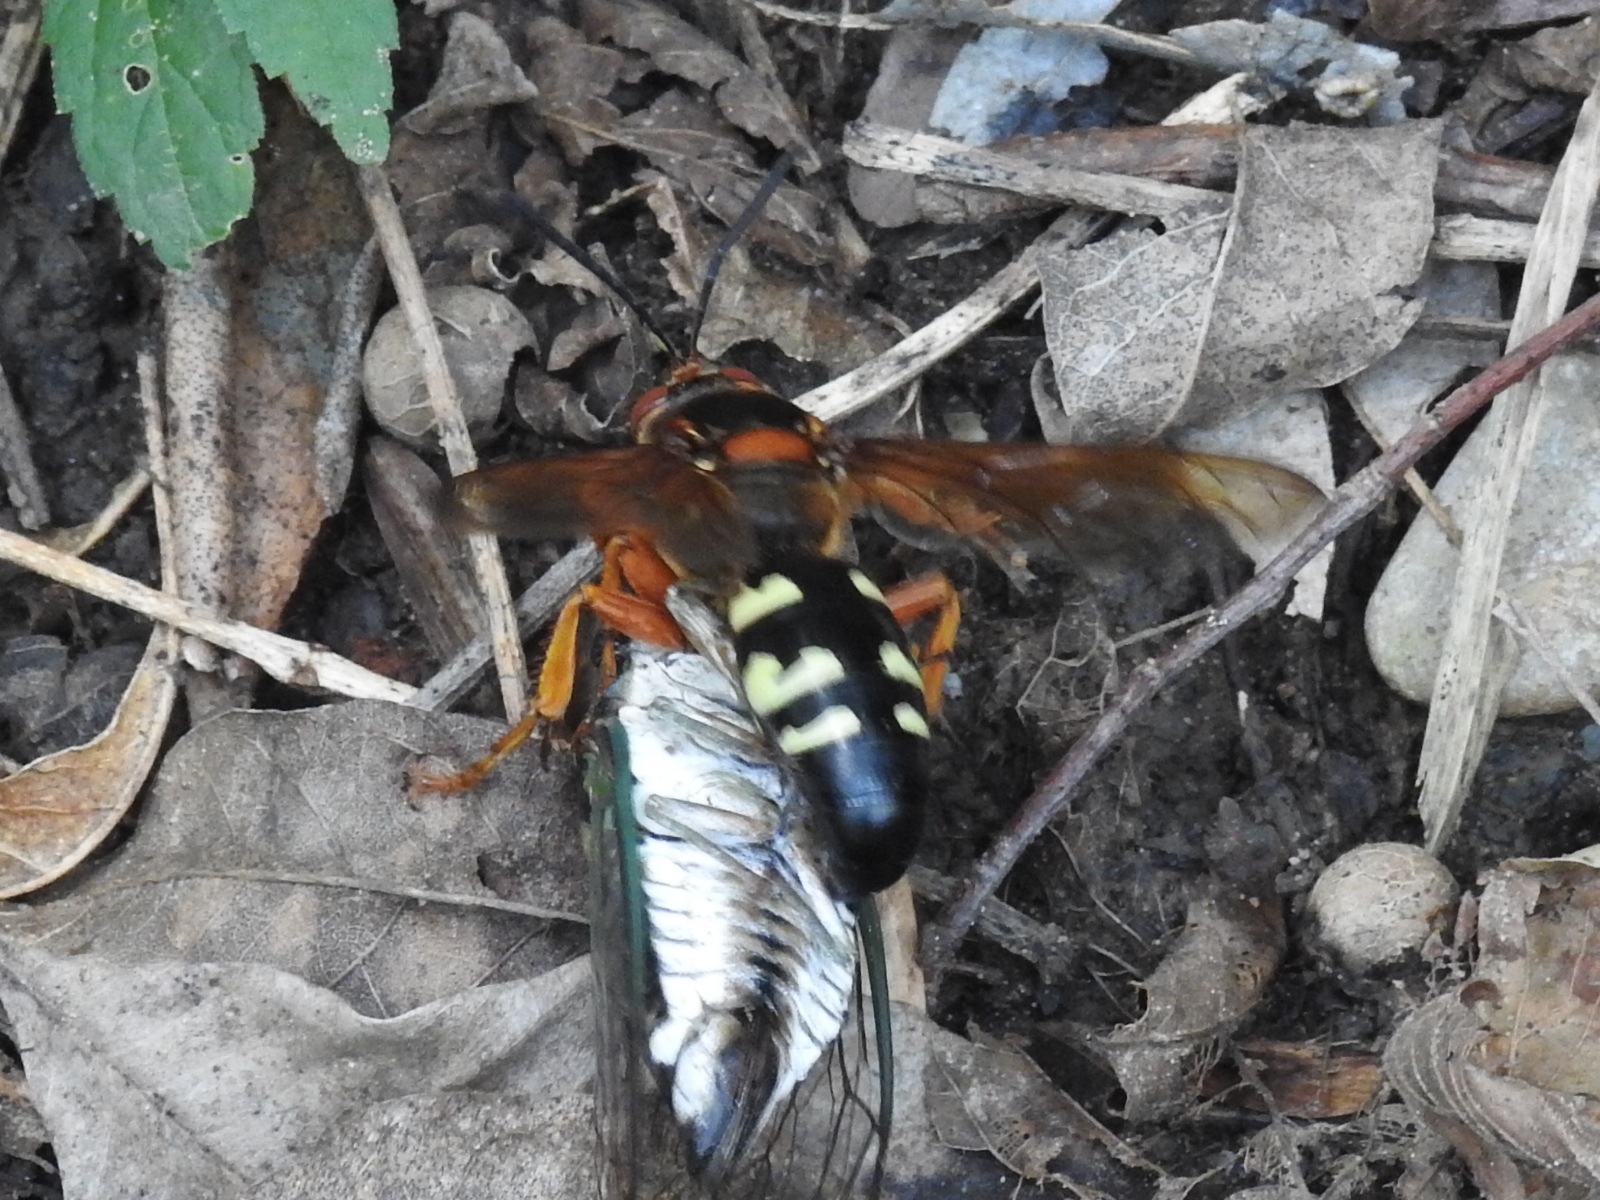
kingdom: Animalia
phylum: Arthropoda
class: Insecta
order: Hymenoptera
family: Crabronidae
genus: Sphecius
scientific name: Sphecius speciosus
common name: Cicada killer
